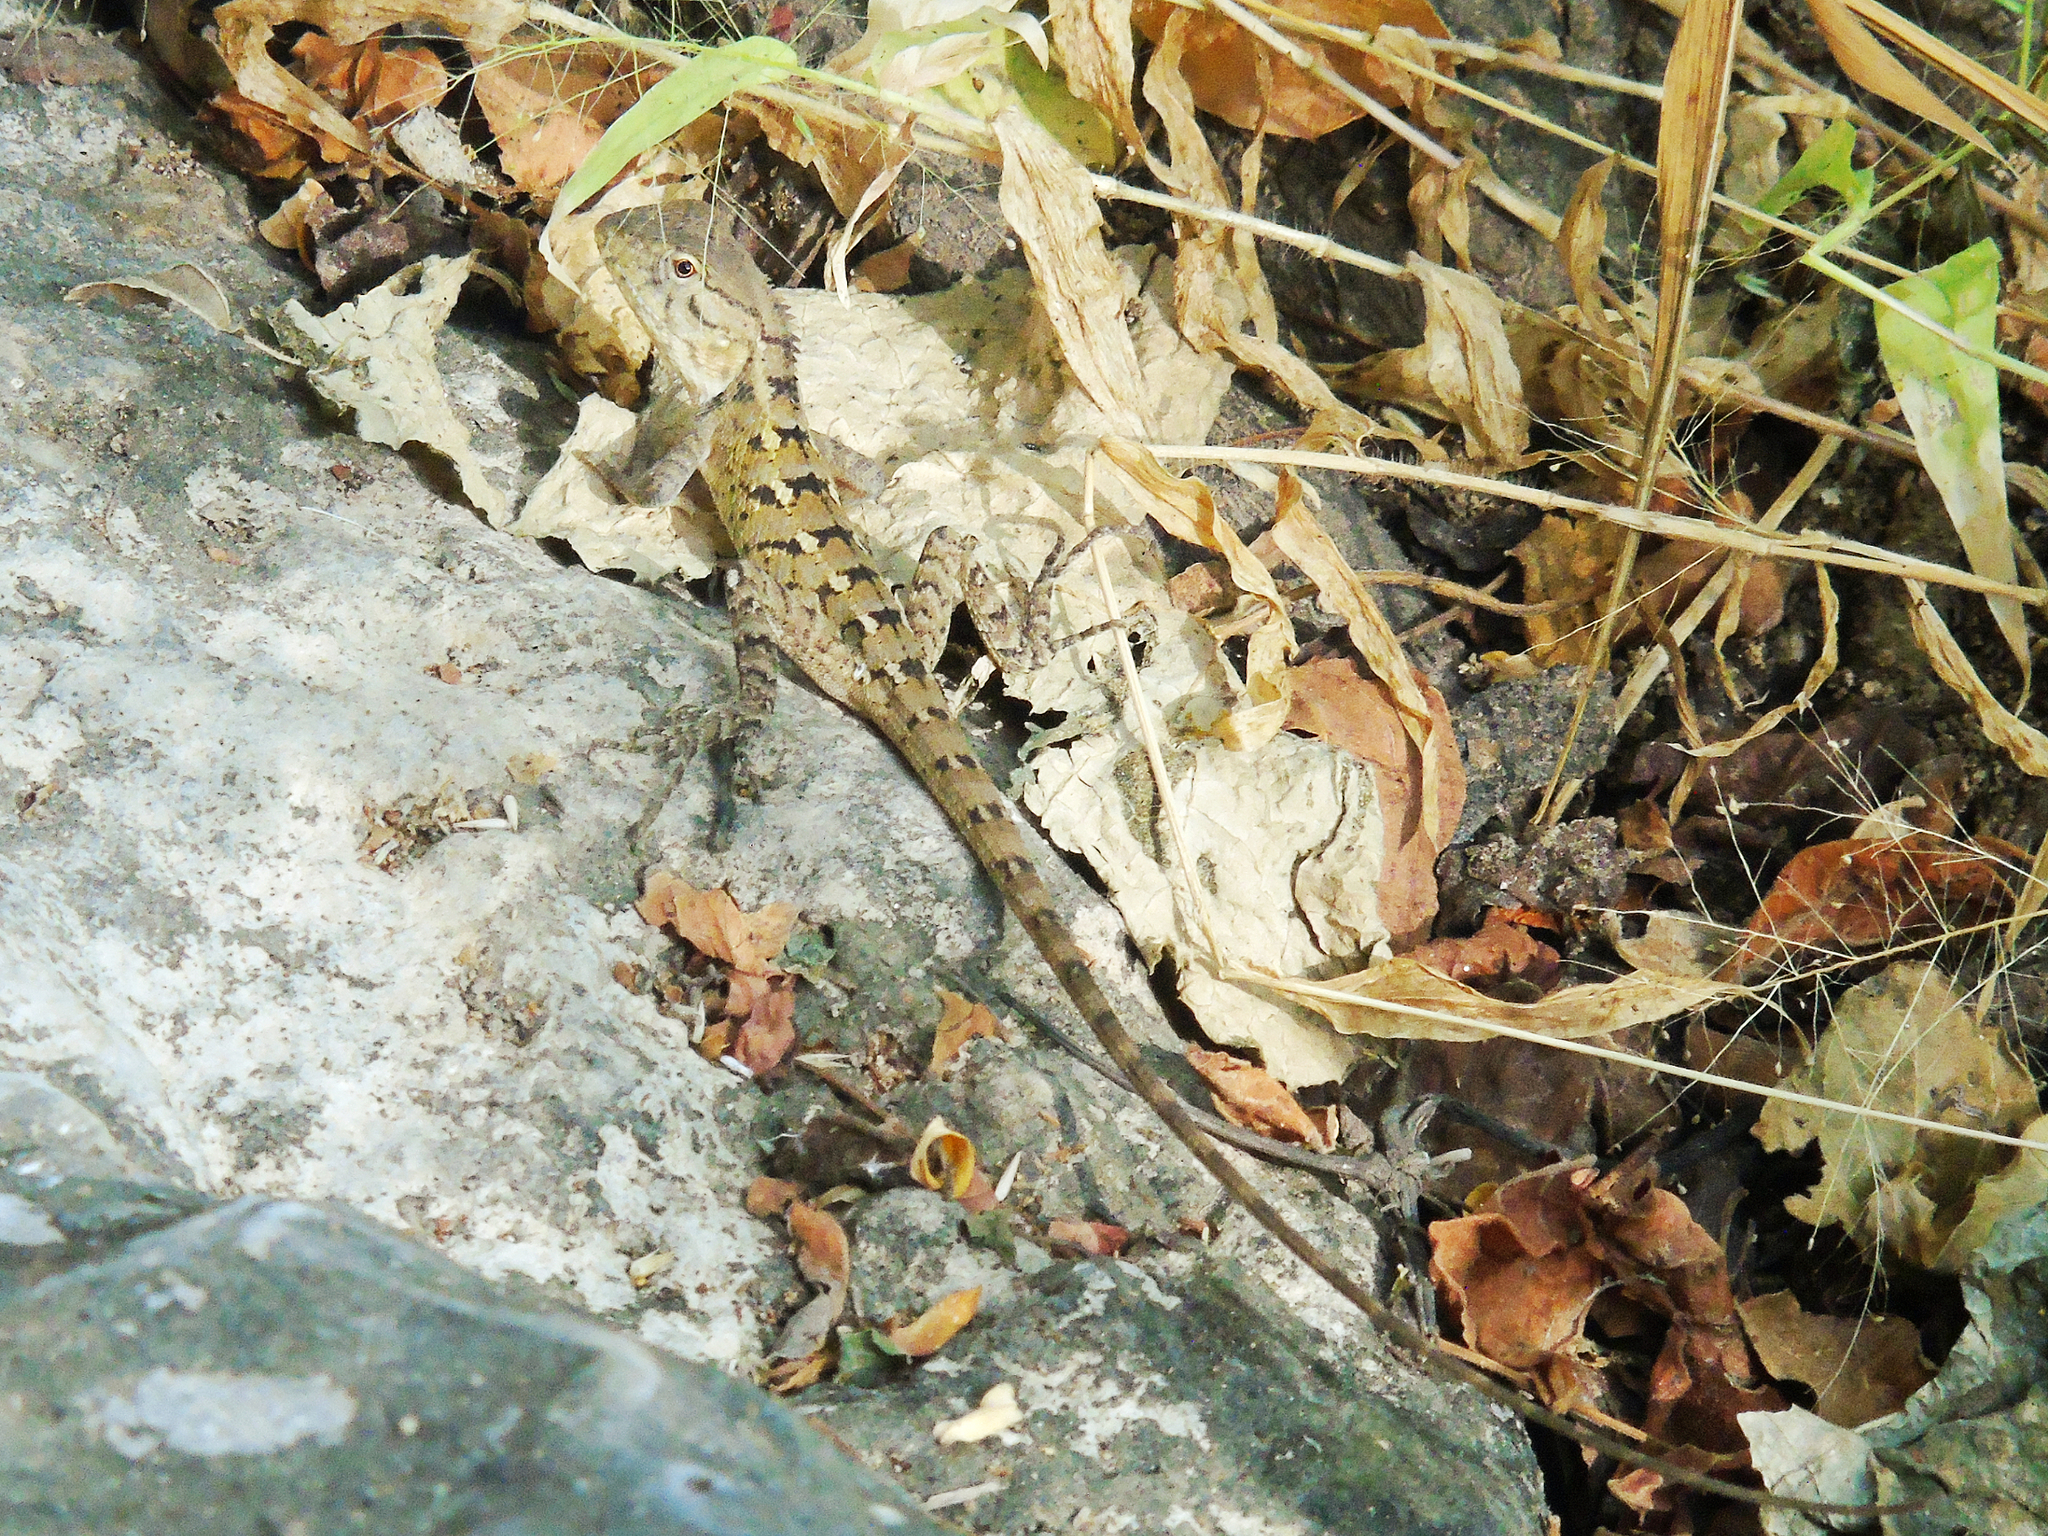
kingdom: Animalia
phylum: Chordata
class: Squamata
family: Agamidae
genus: Calotes
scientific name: Calotes versicolor
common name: Oriental garden lizard
